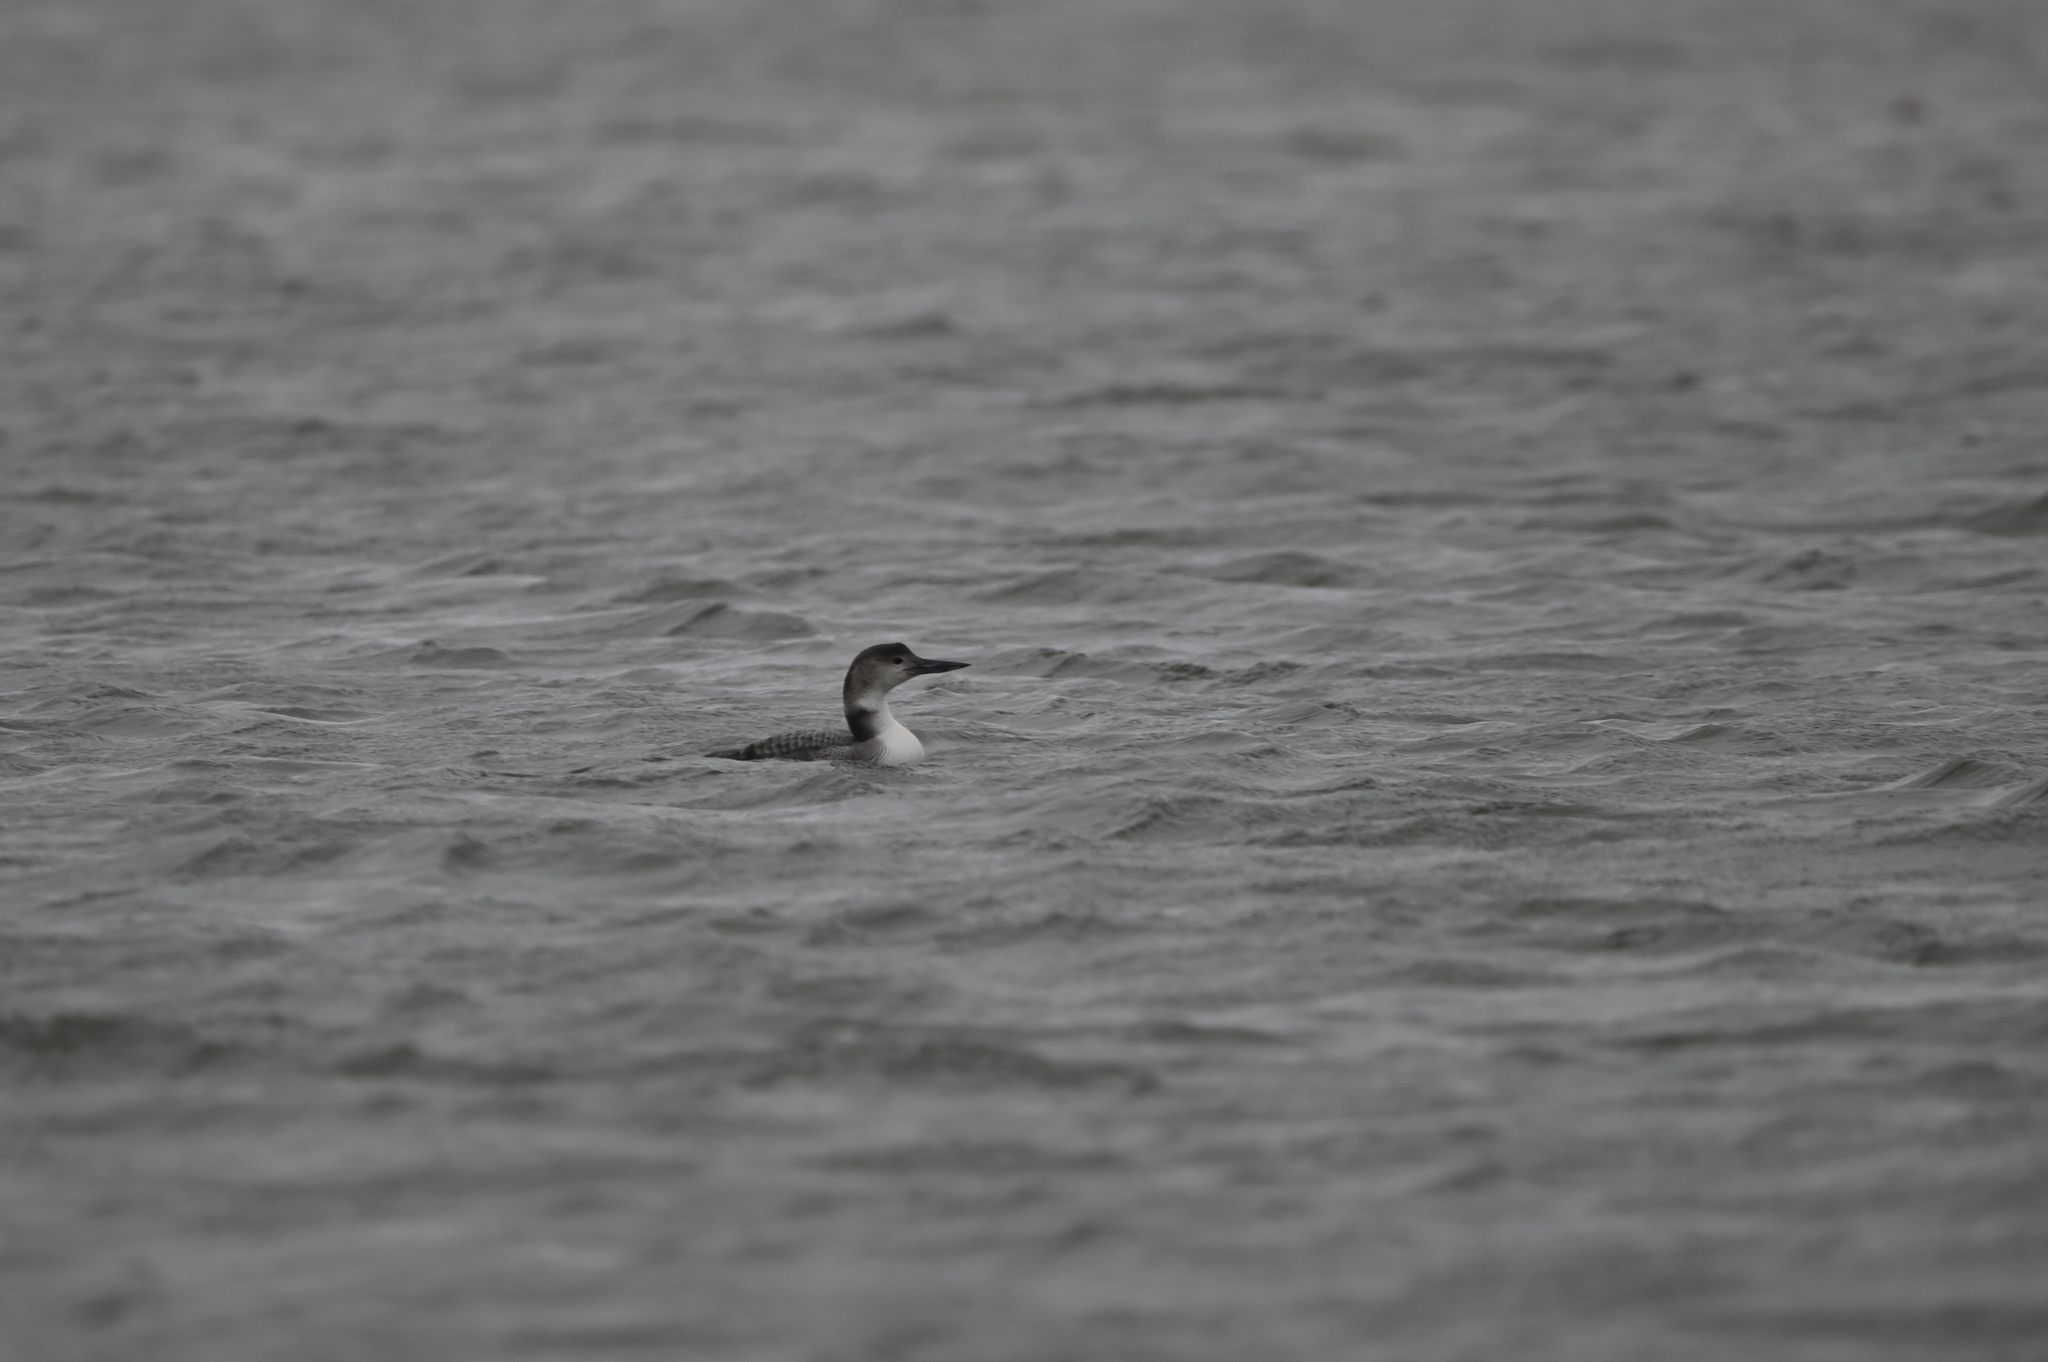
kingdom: Animalia
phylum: Chordata
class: Aves
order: Gaviiformes
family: Gaviidae
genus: Gavia
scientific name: Gavia immer
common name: Common loon
